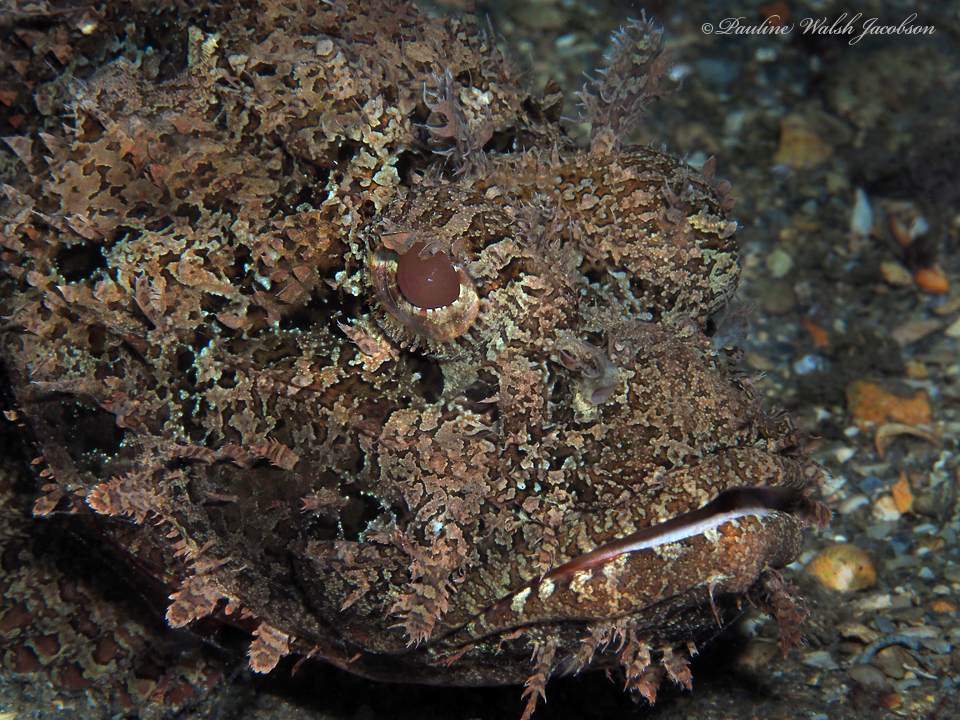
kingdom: Animalia
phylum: Chordata
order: Scorpaeniformes
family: Scorpaenidae
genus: Scorpaena
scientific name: Scorpaena plumieri
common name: Spotted scorpionfish
